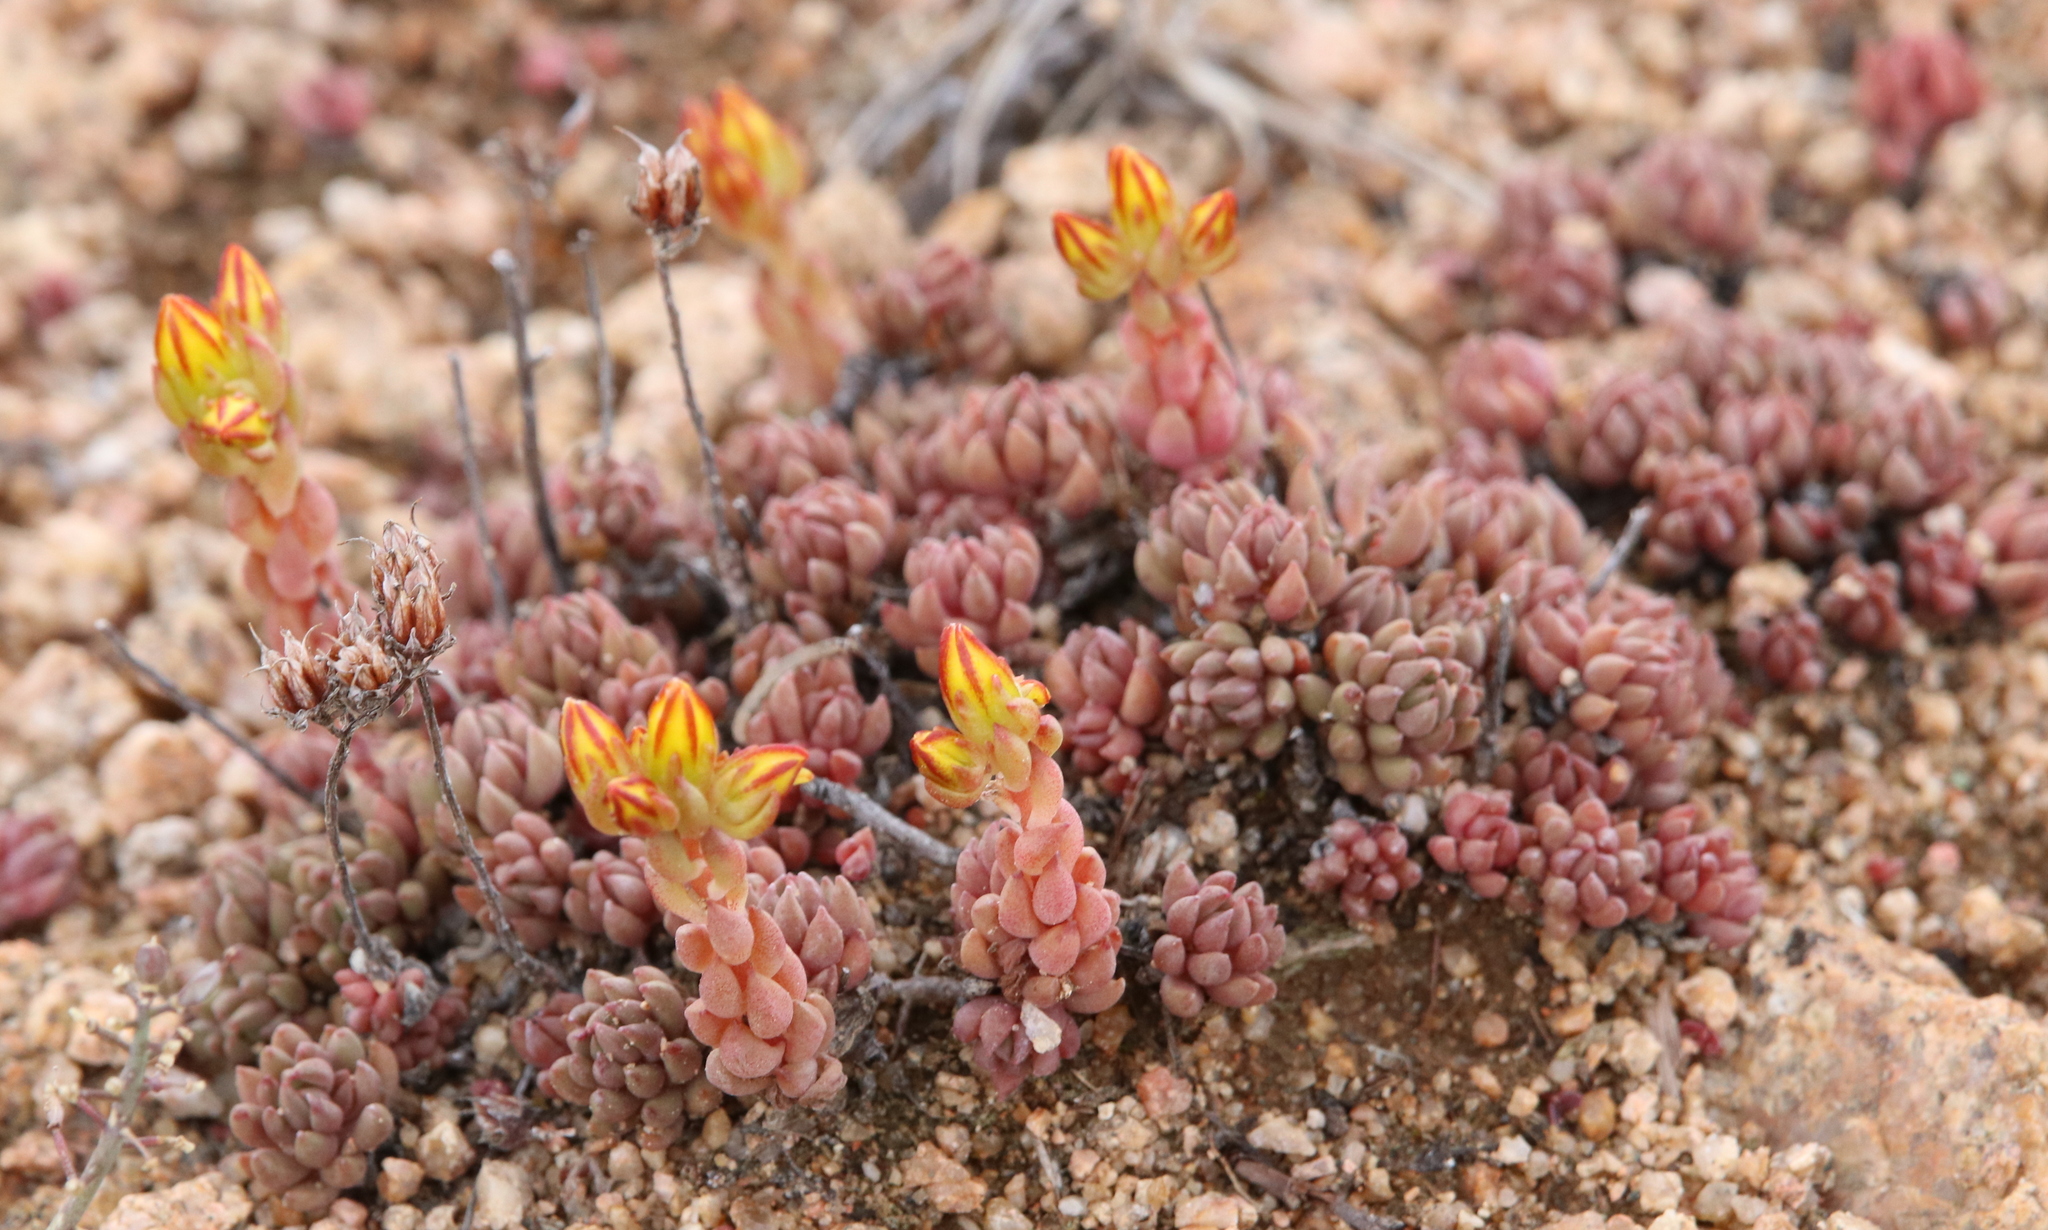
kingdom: Plantae
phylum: Tracheophyta
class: Magnoliopsida
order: Saxifragales
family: Crassulaceae
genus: Sedum
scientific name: Sedum lanceolatum
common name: Common stonecrop
